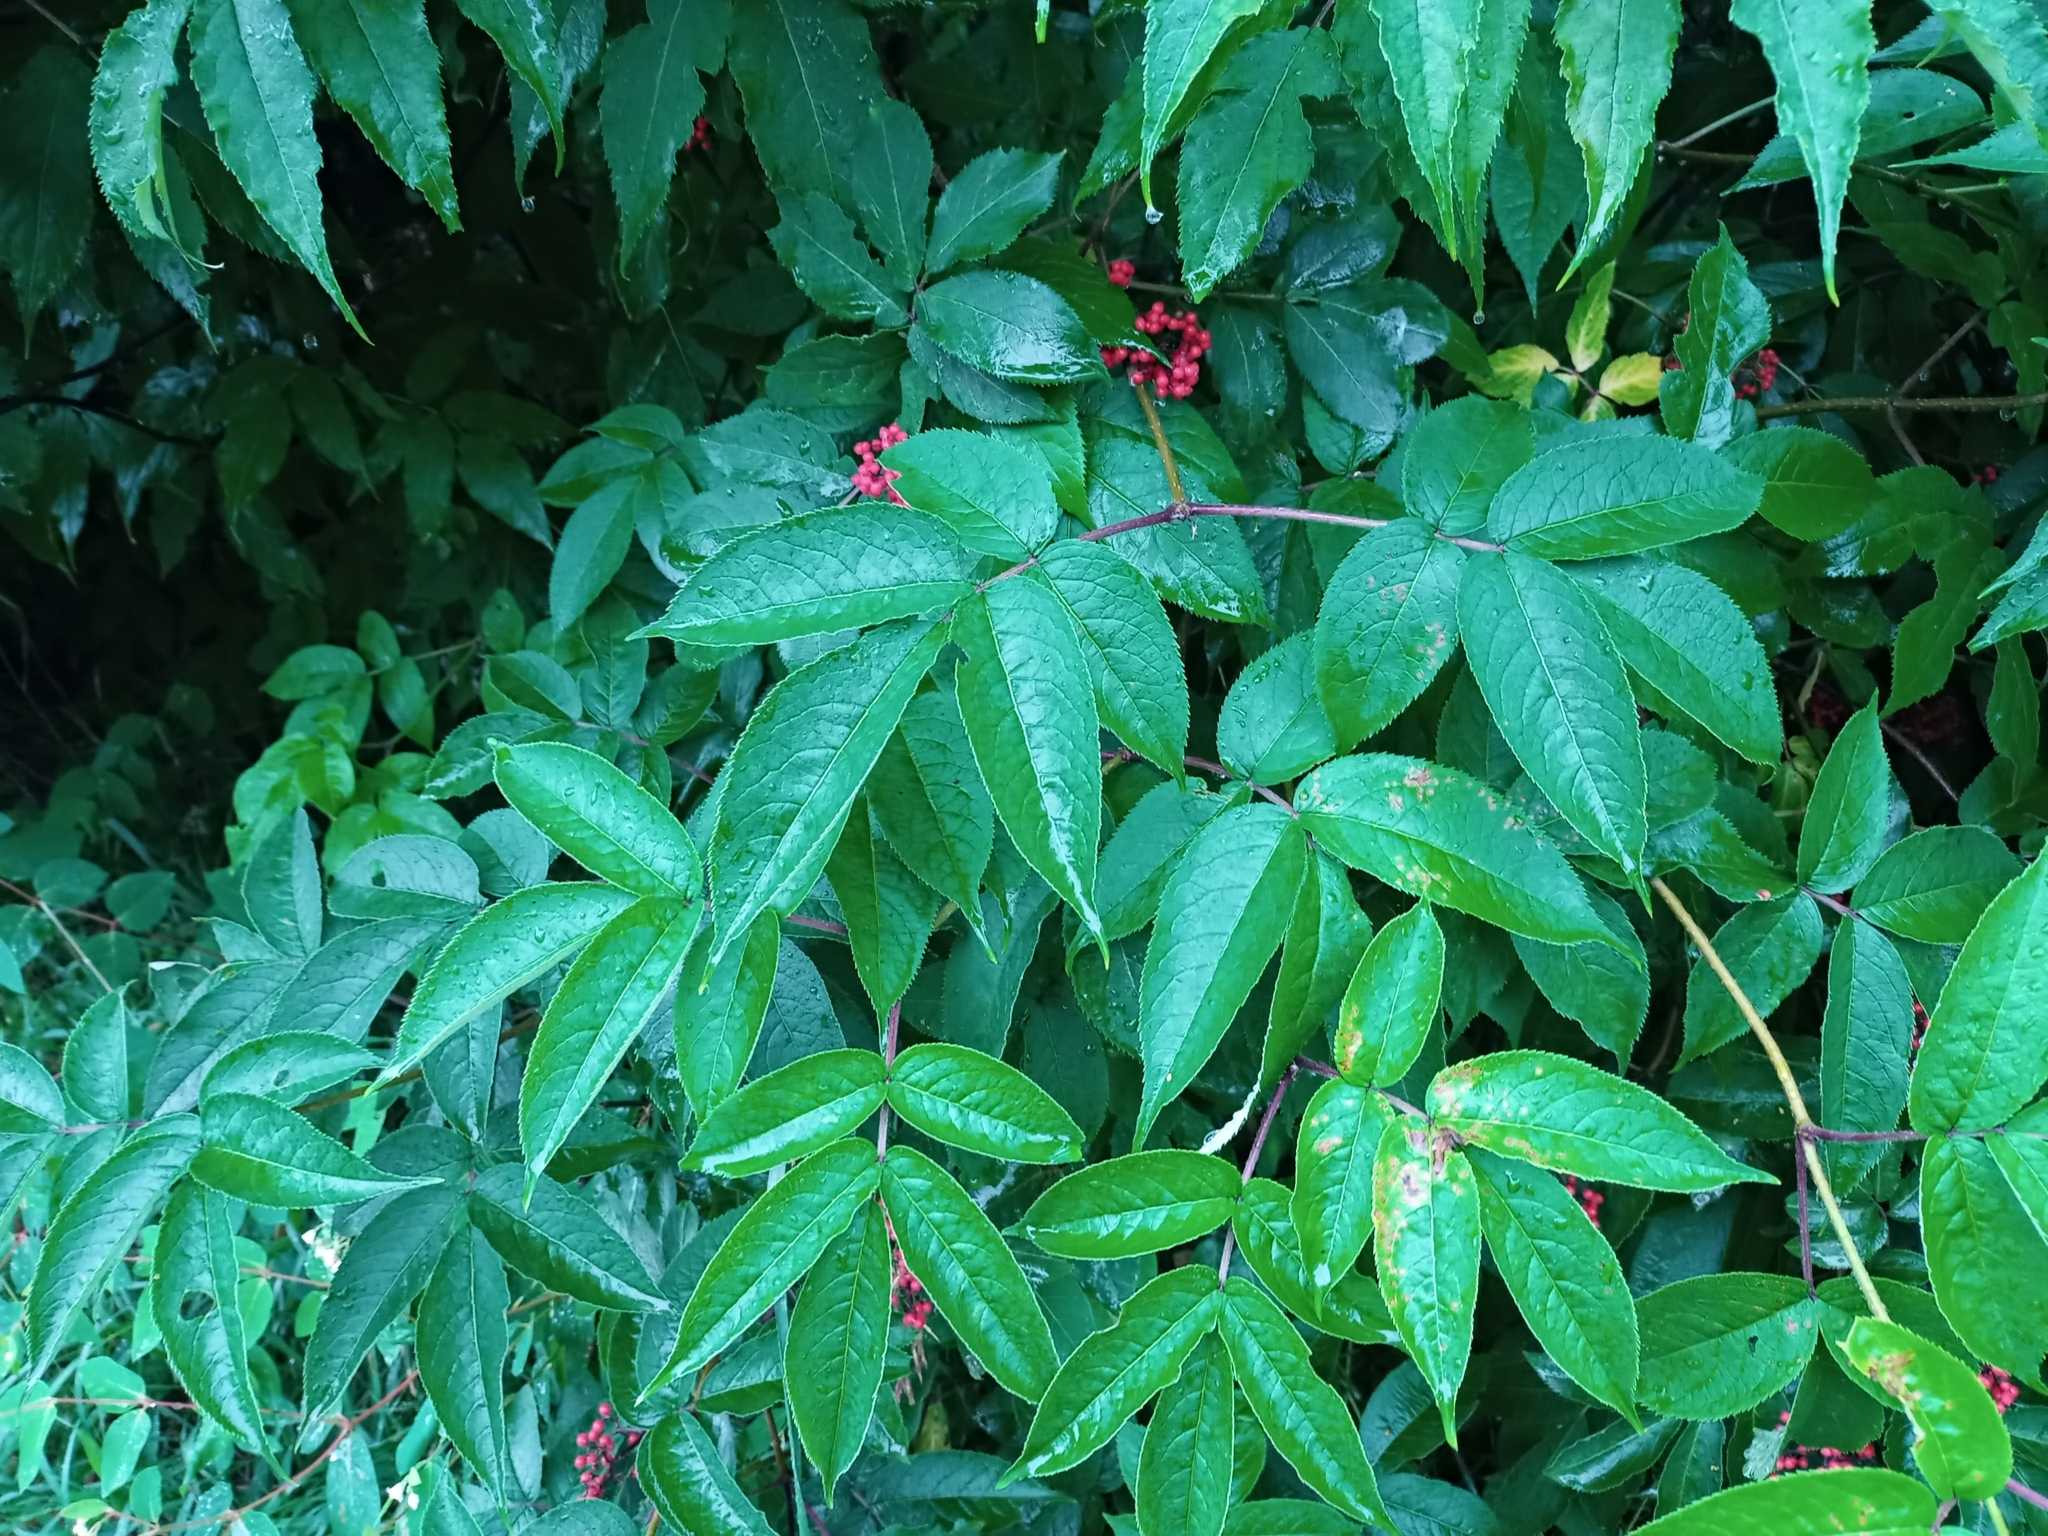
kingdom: Plantae
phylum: Tracheophyta
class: Magnoliopsida
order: Dipsacales
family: Viburnaceae
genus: Sambucus
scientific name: Sambucus racemosa
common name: Red-berried elder
